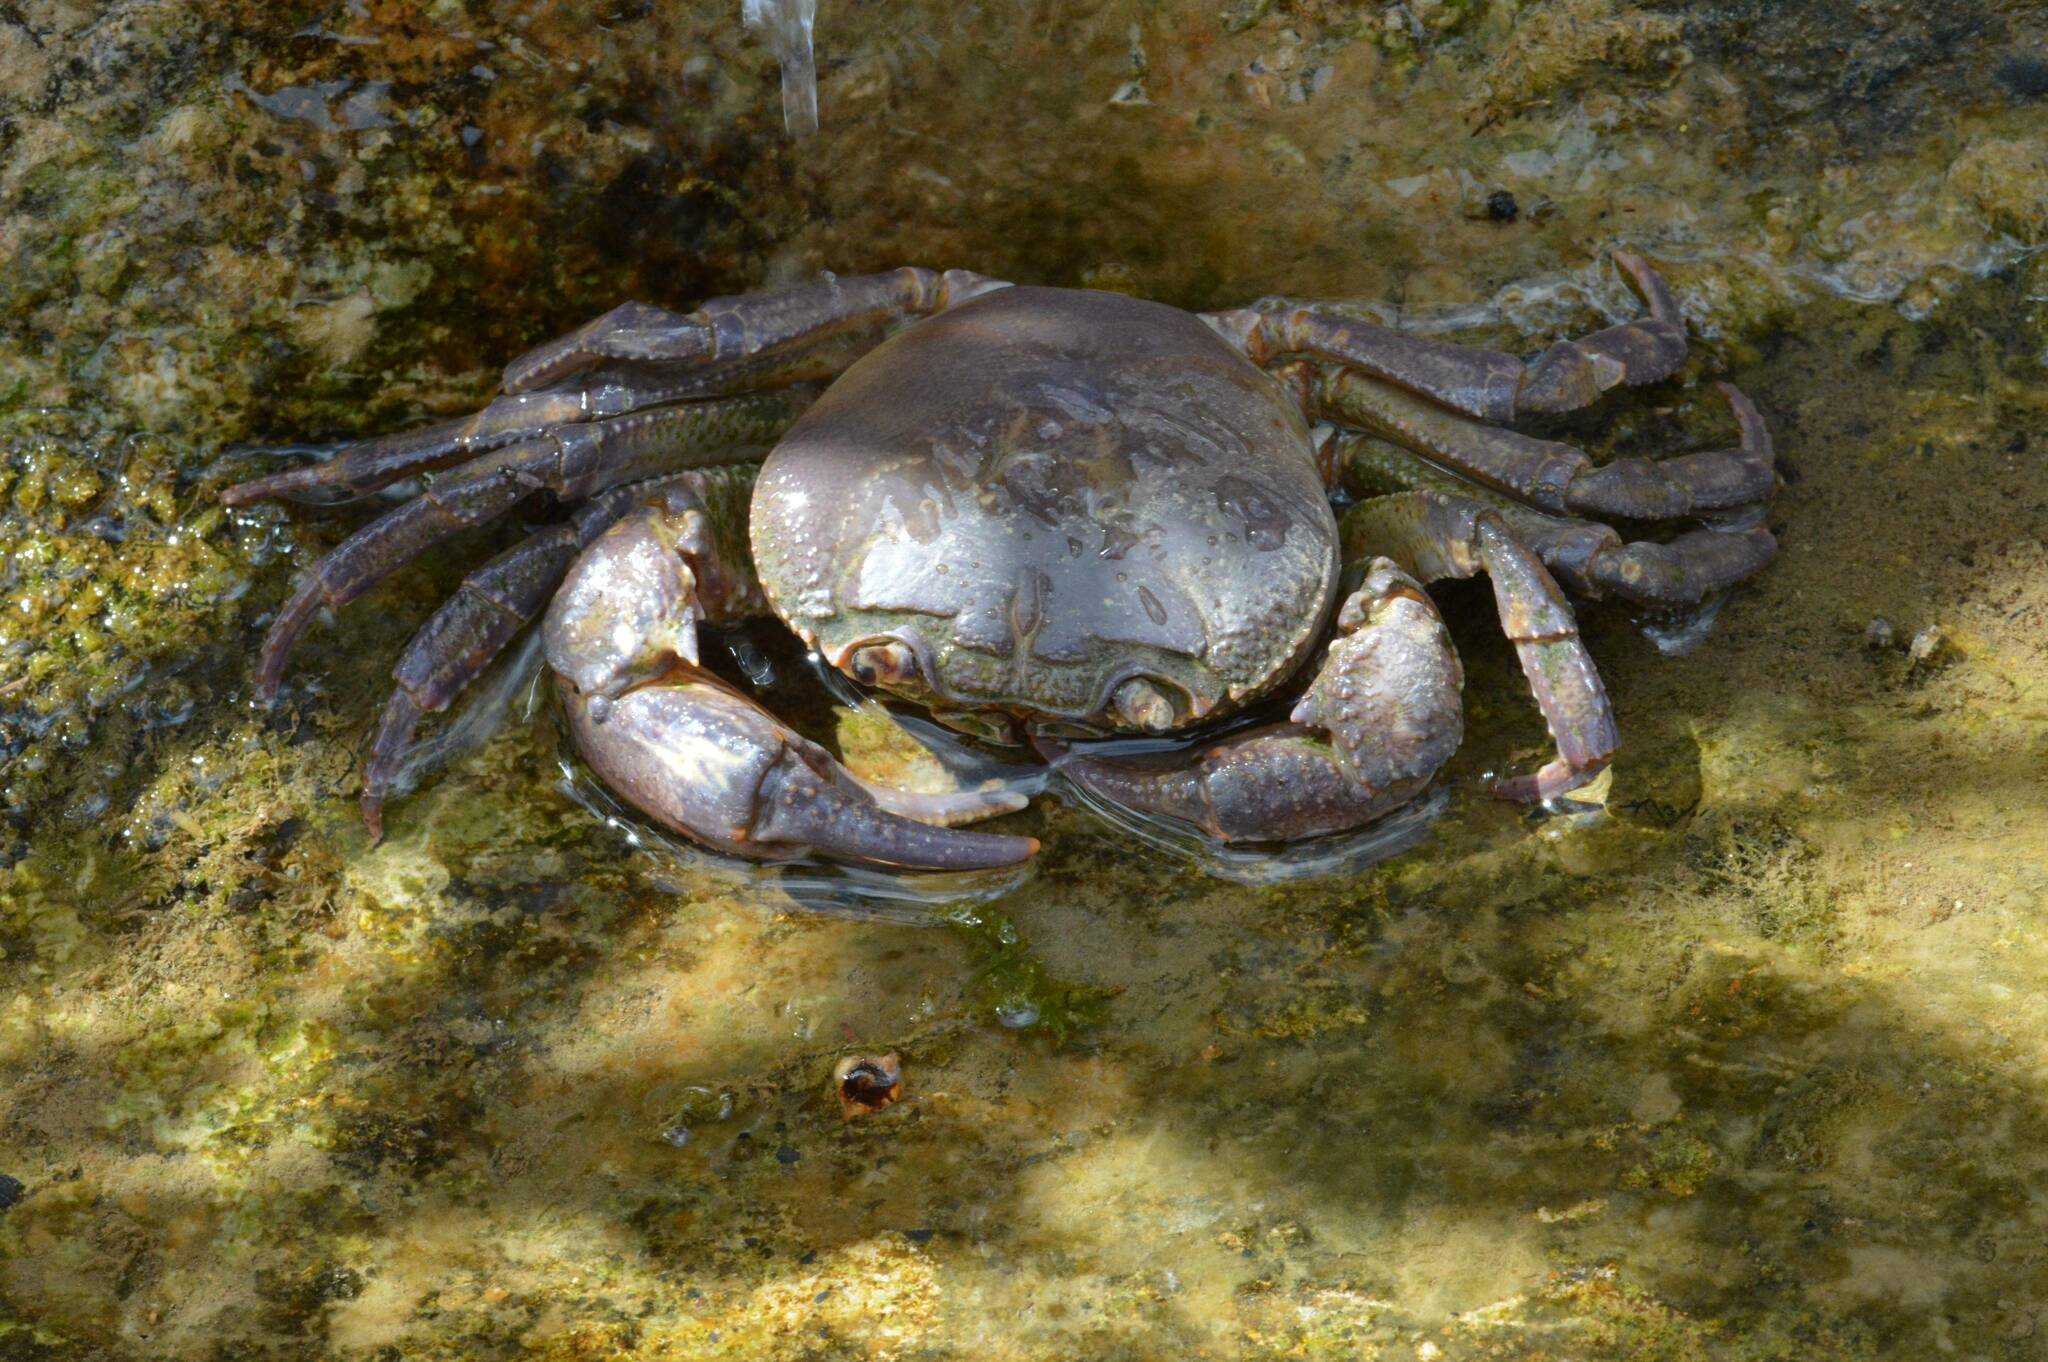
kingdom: Animalia
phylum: Arthropoda
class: Malacostraca
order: Decapoda
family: Potamidae
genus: Potamon
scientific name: Potamon algeriense
